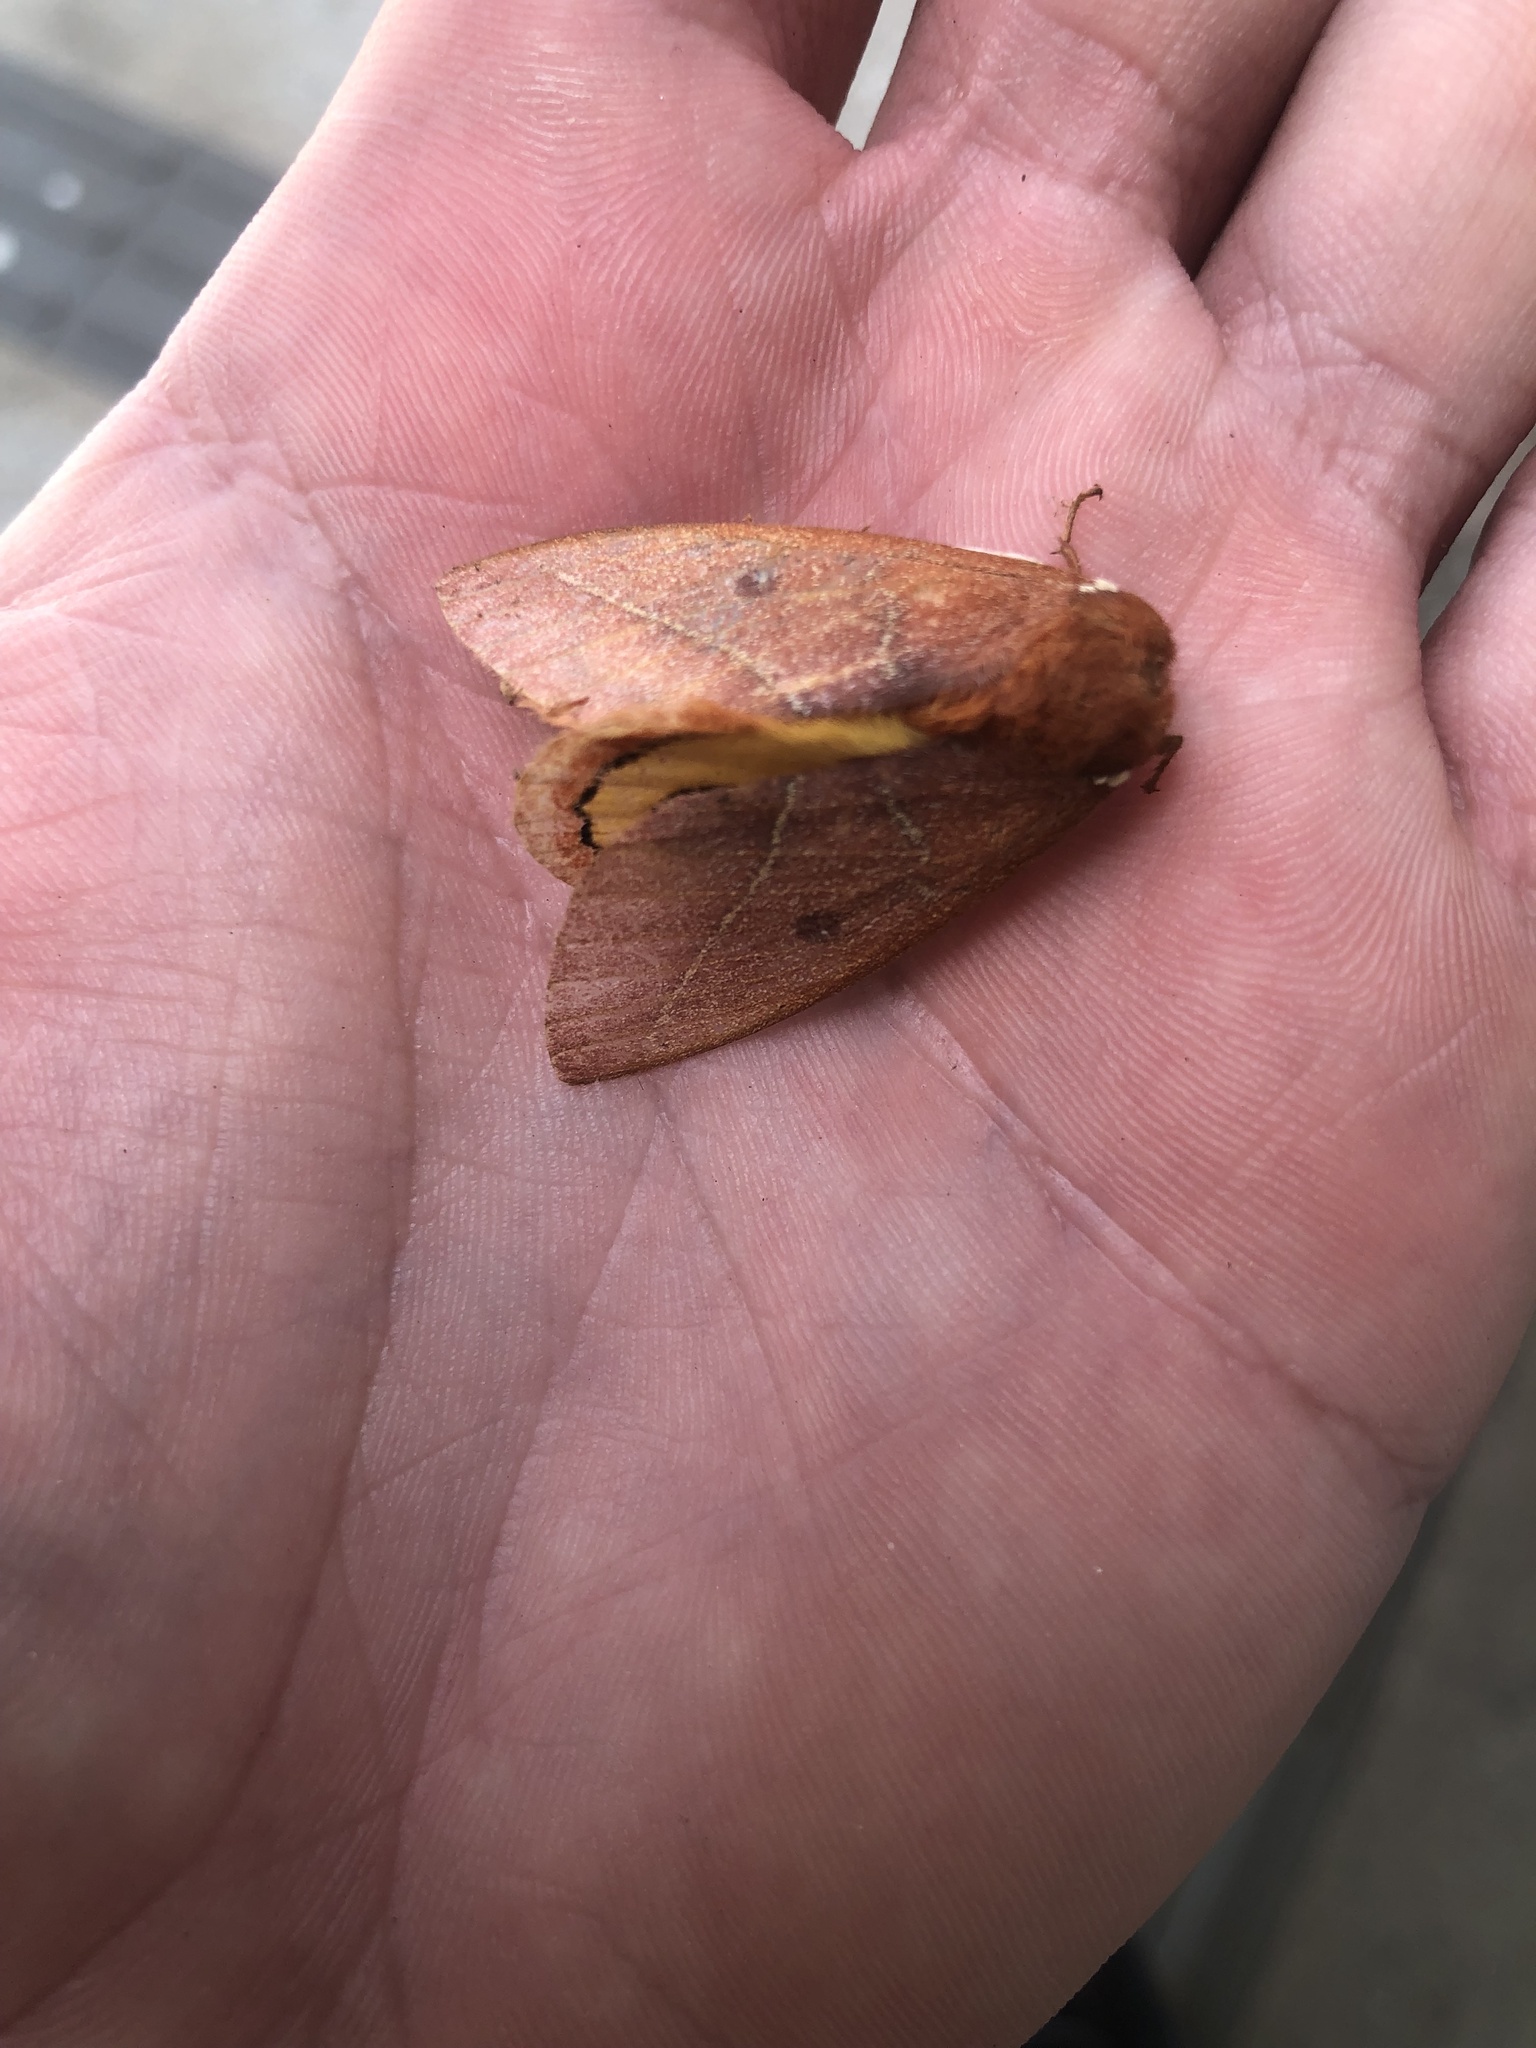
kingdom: Animalia
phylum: Arthropoda
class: Insecta
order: Lepidoptera
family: Saturniidae
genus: Automeris
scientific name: Automeris granulosa
